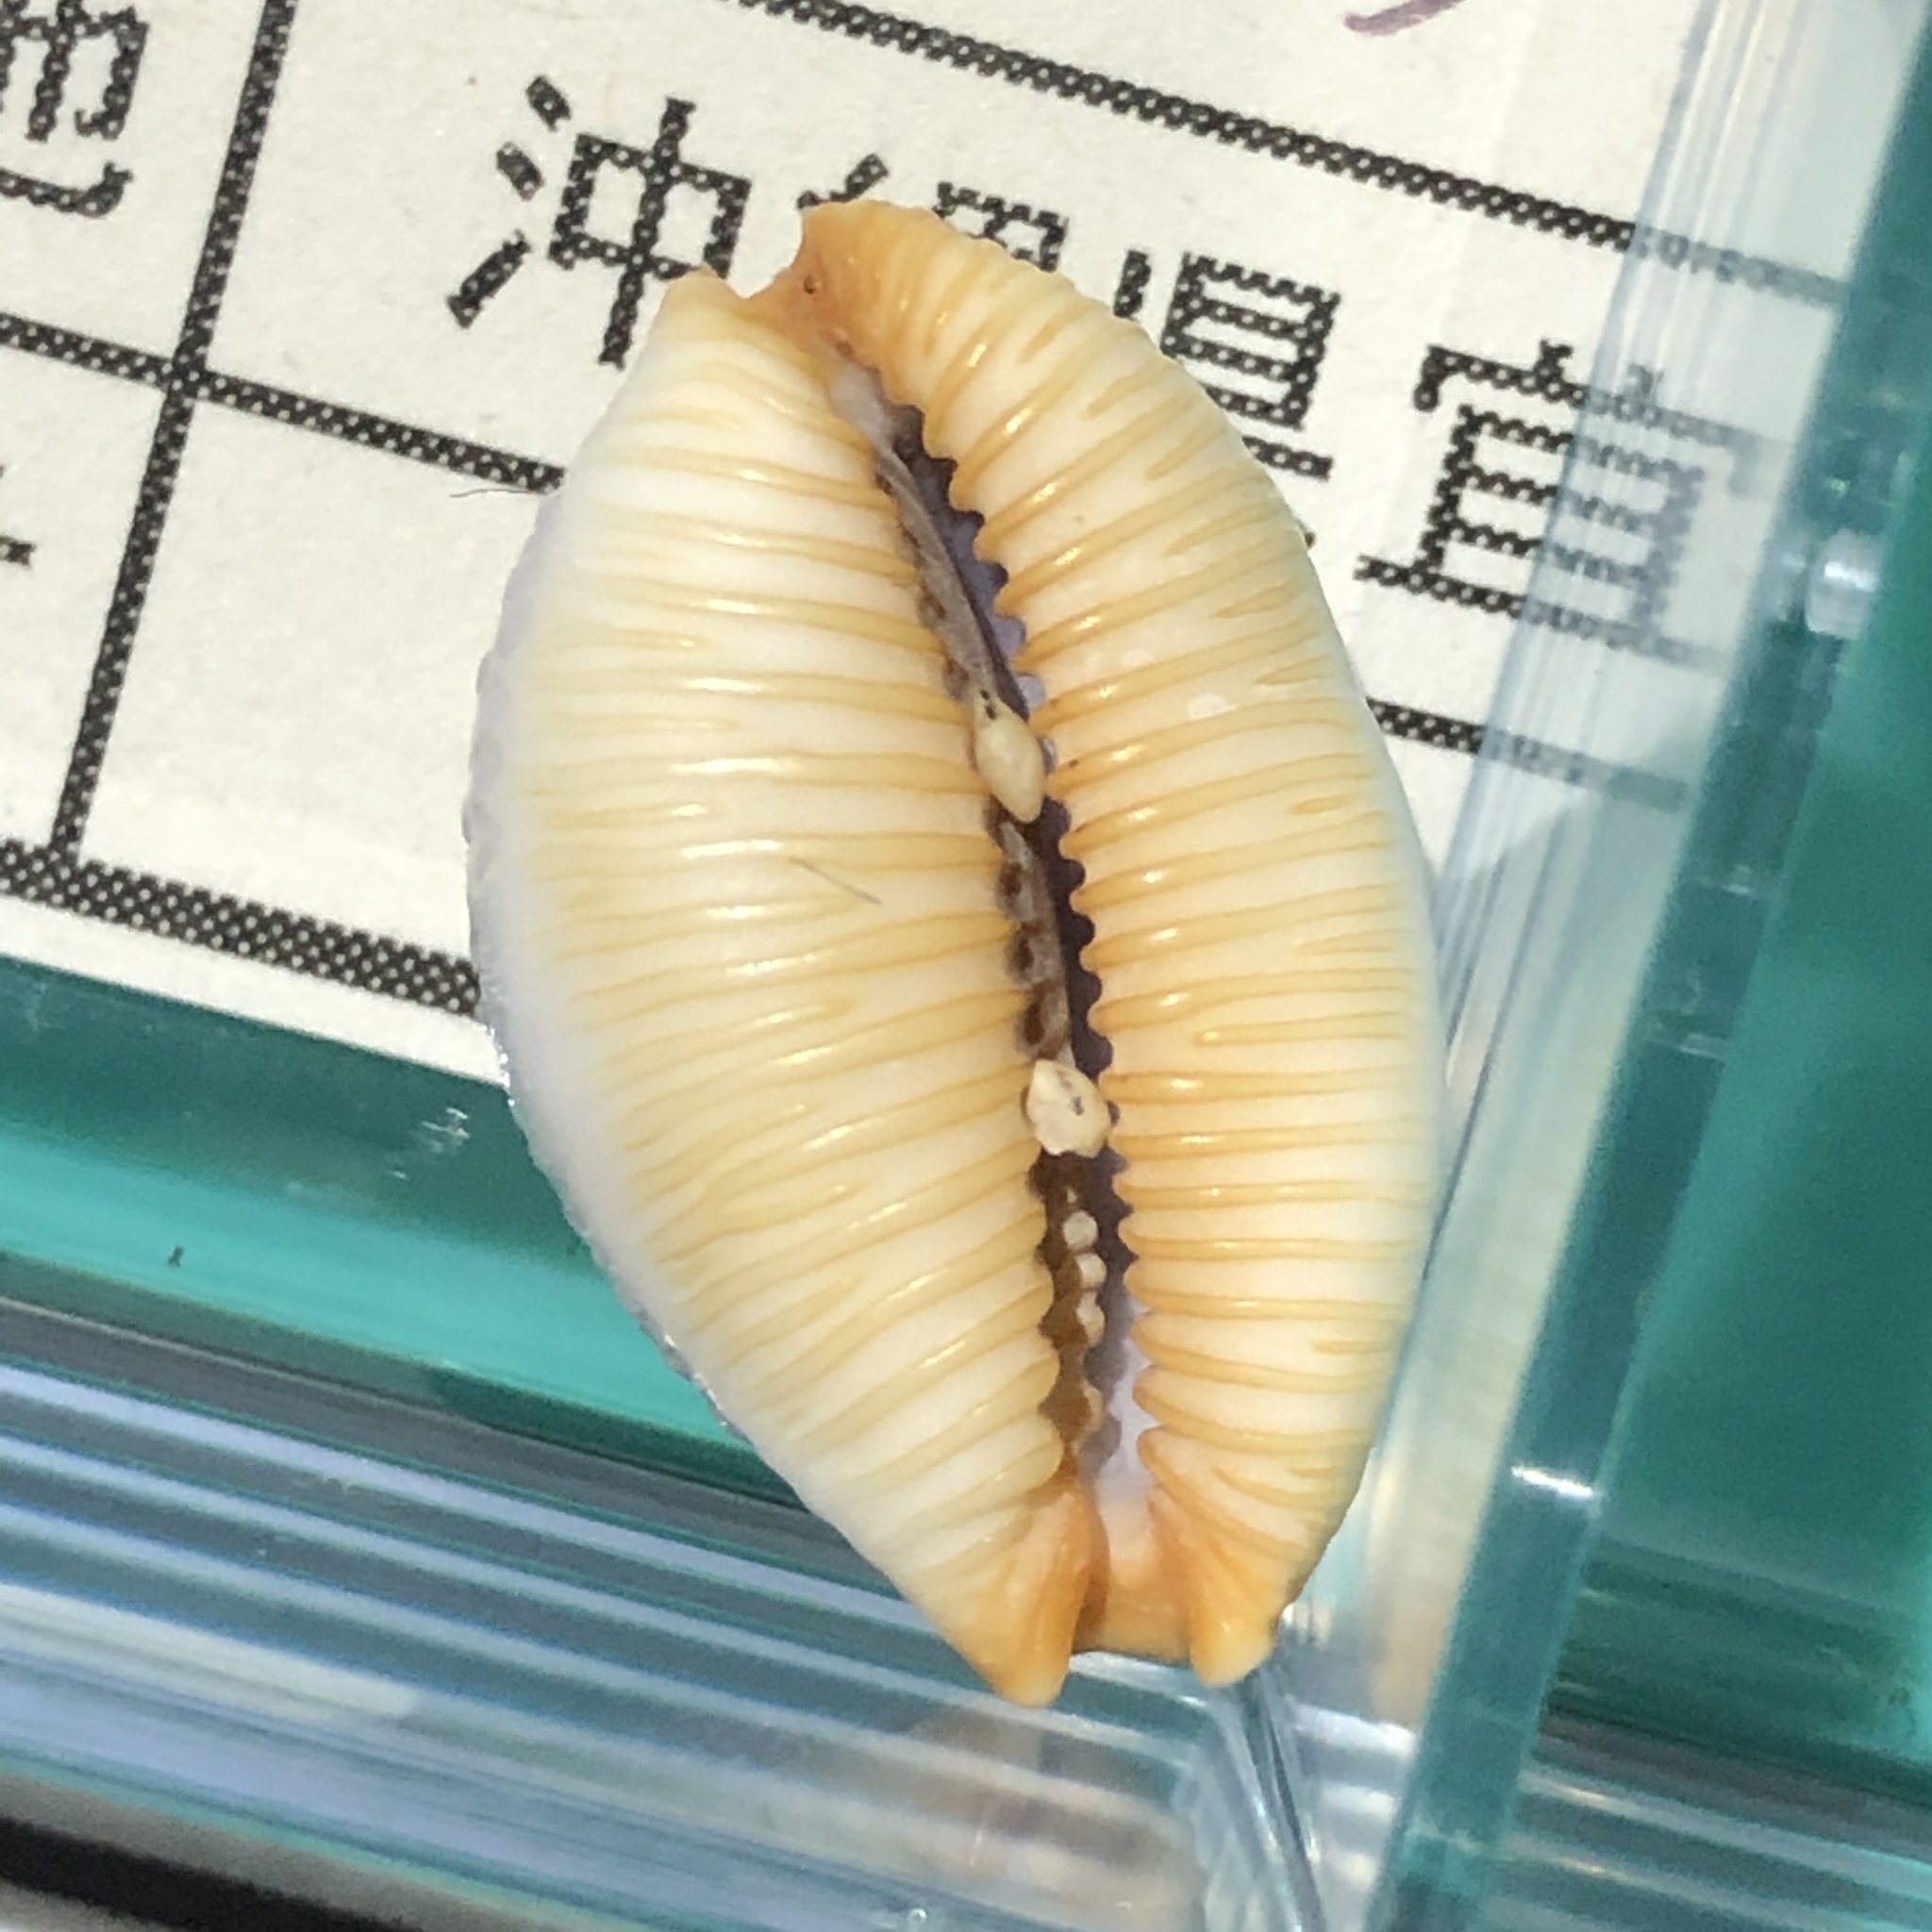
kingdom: Animalia
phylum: Mollusca
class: Gastropoda
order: Littorinimorpha
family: Cypraeidae
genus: Staphylaea
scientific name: Staphylaea staphylaea
